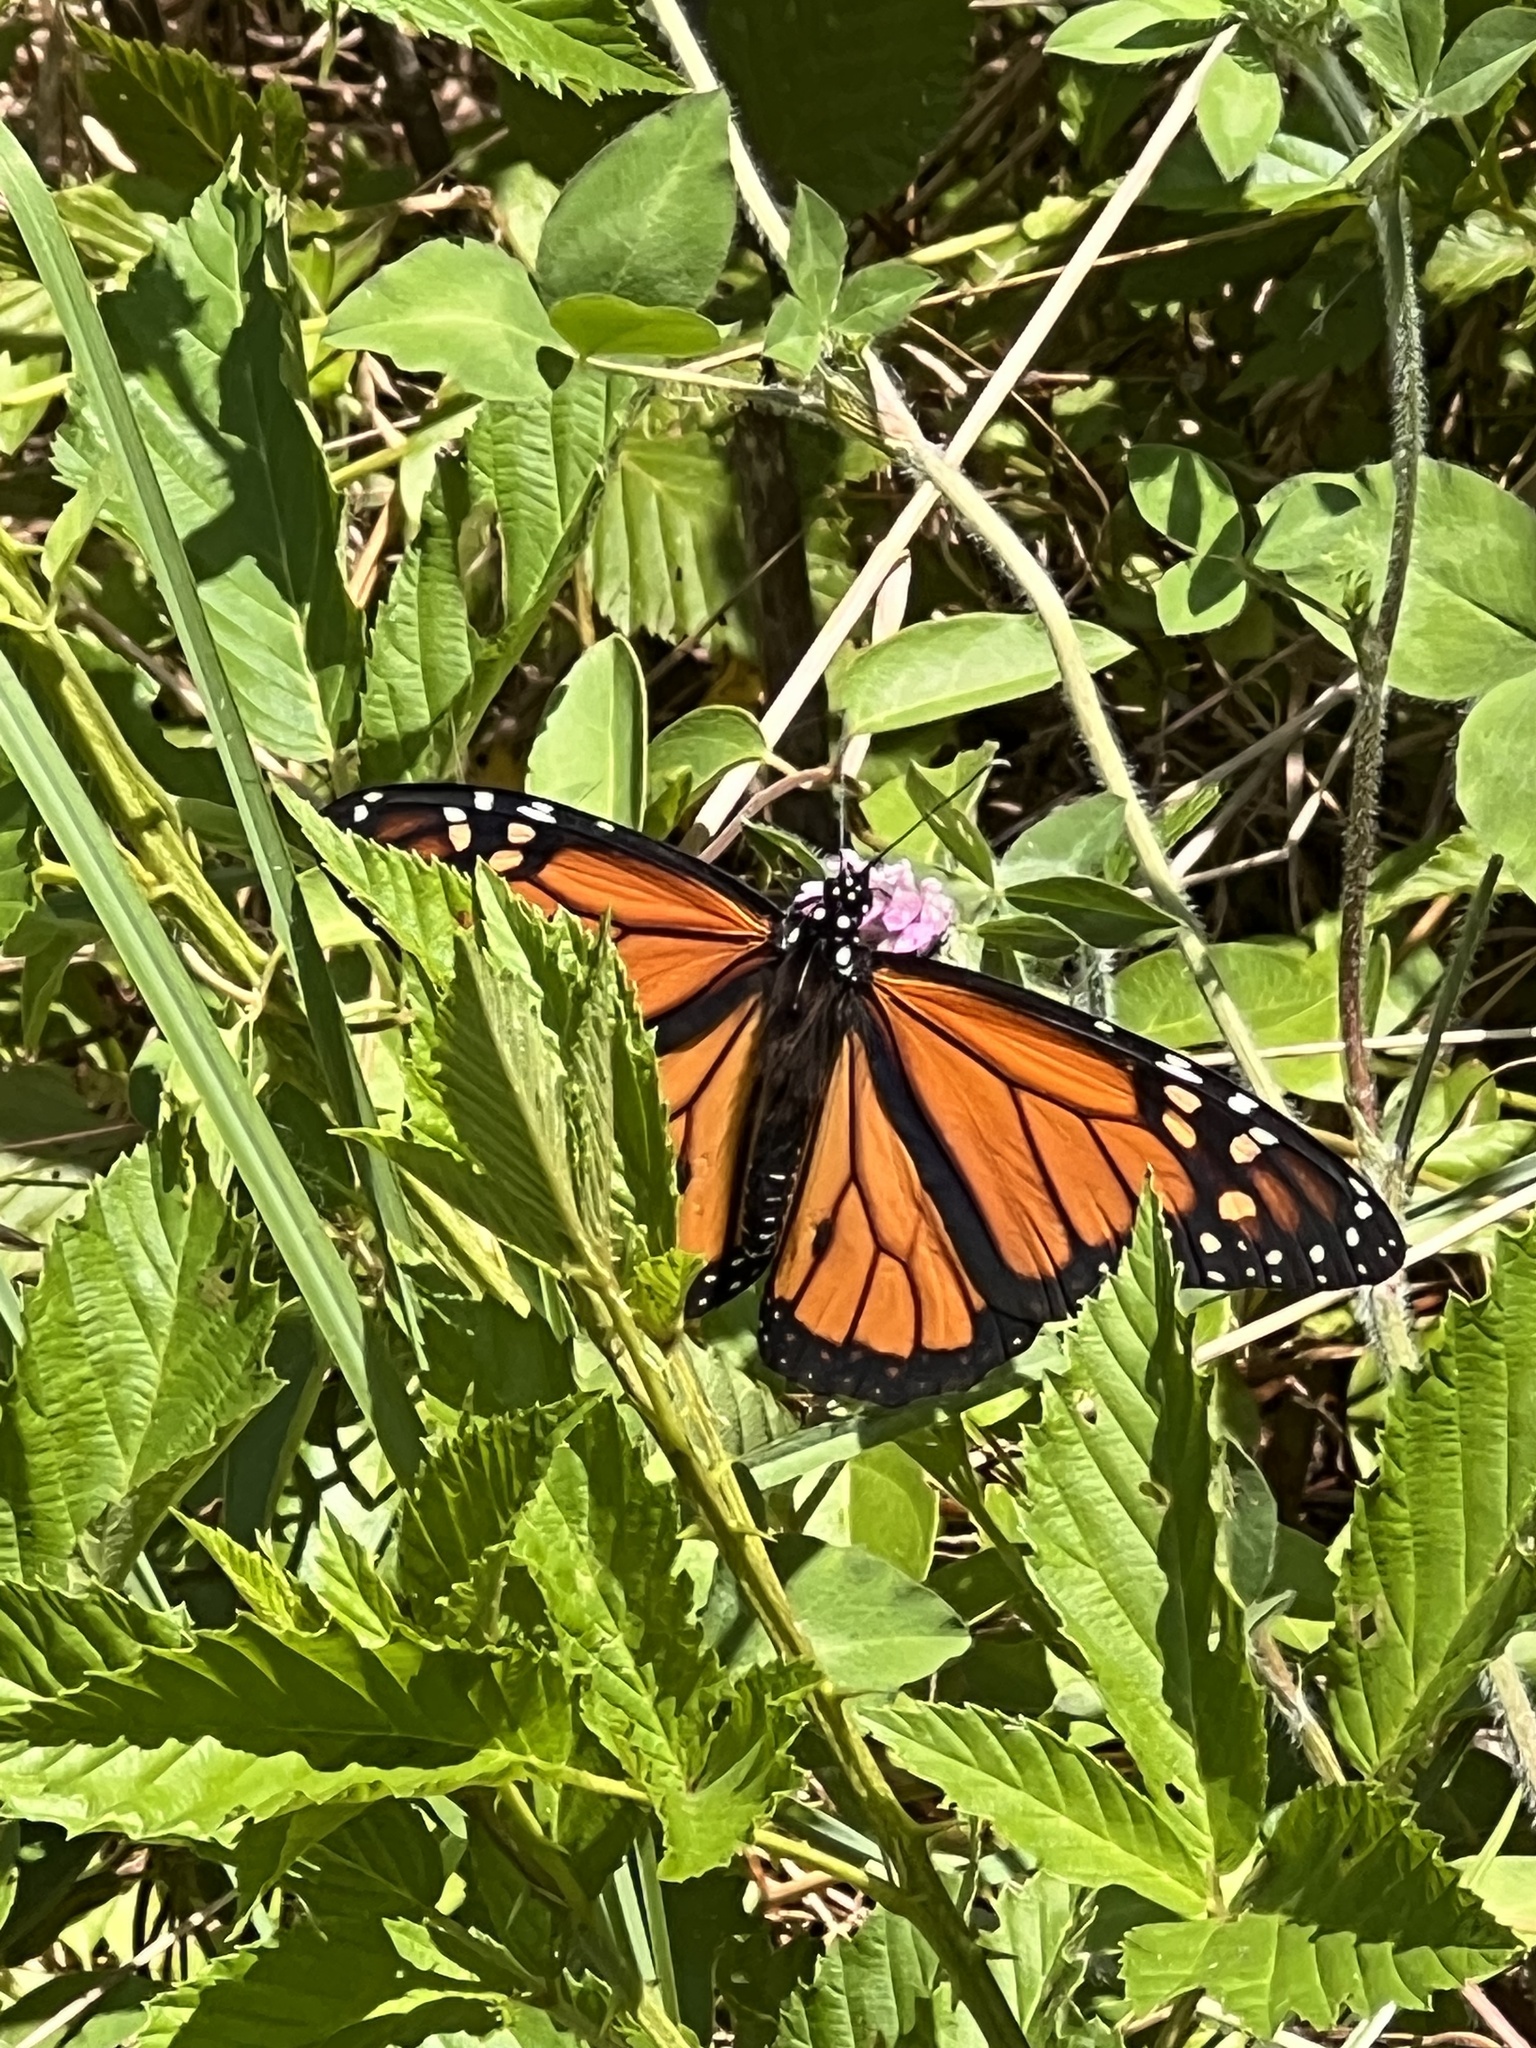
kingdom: Animalia
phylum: Arthropoda
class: Insecta
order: Lepidoptera
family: Nymphalidae
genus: Danaus
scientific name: Danaus plexippus
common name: Monarch
